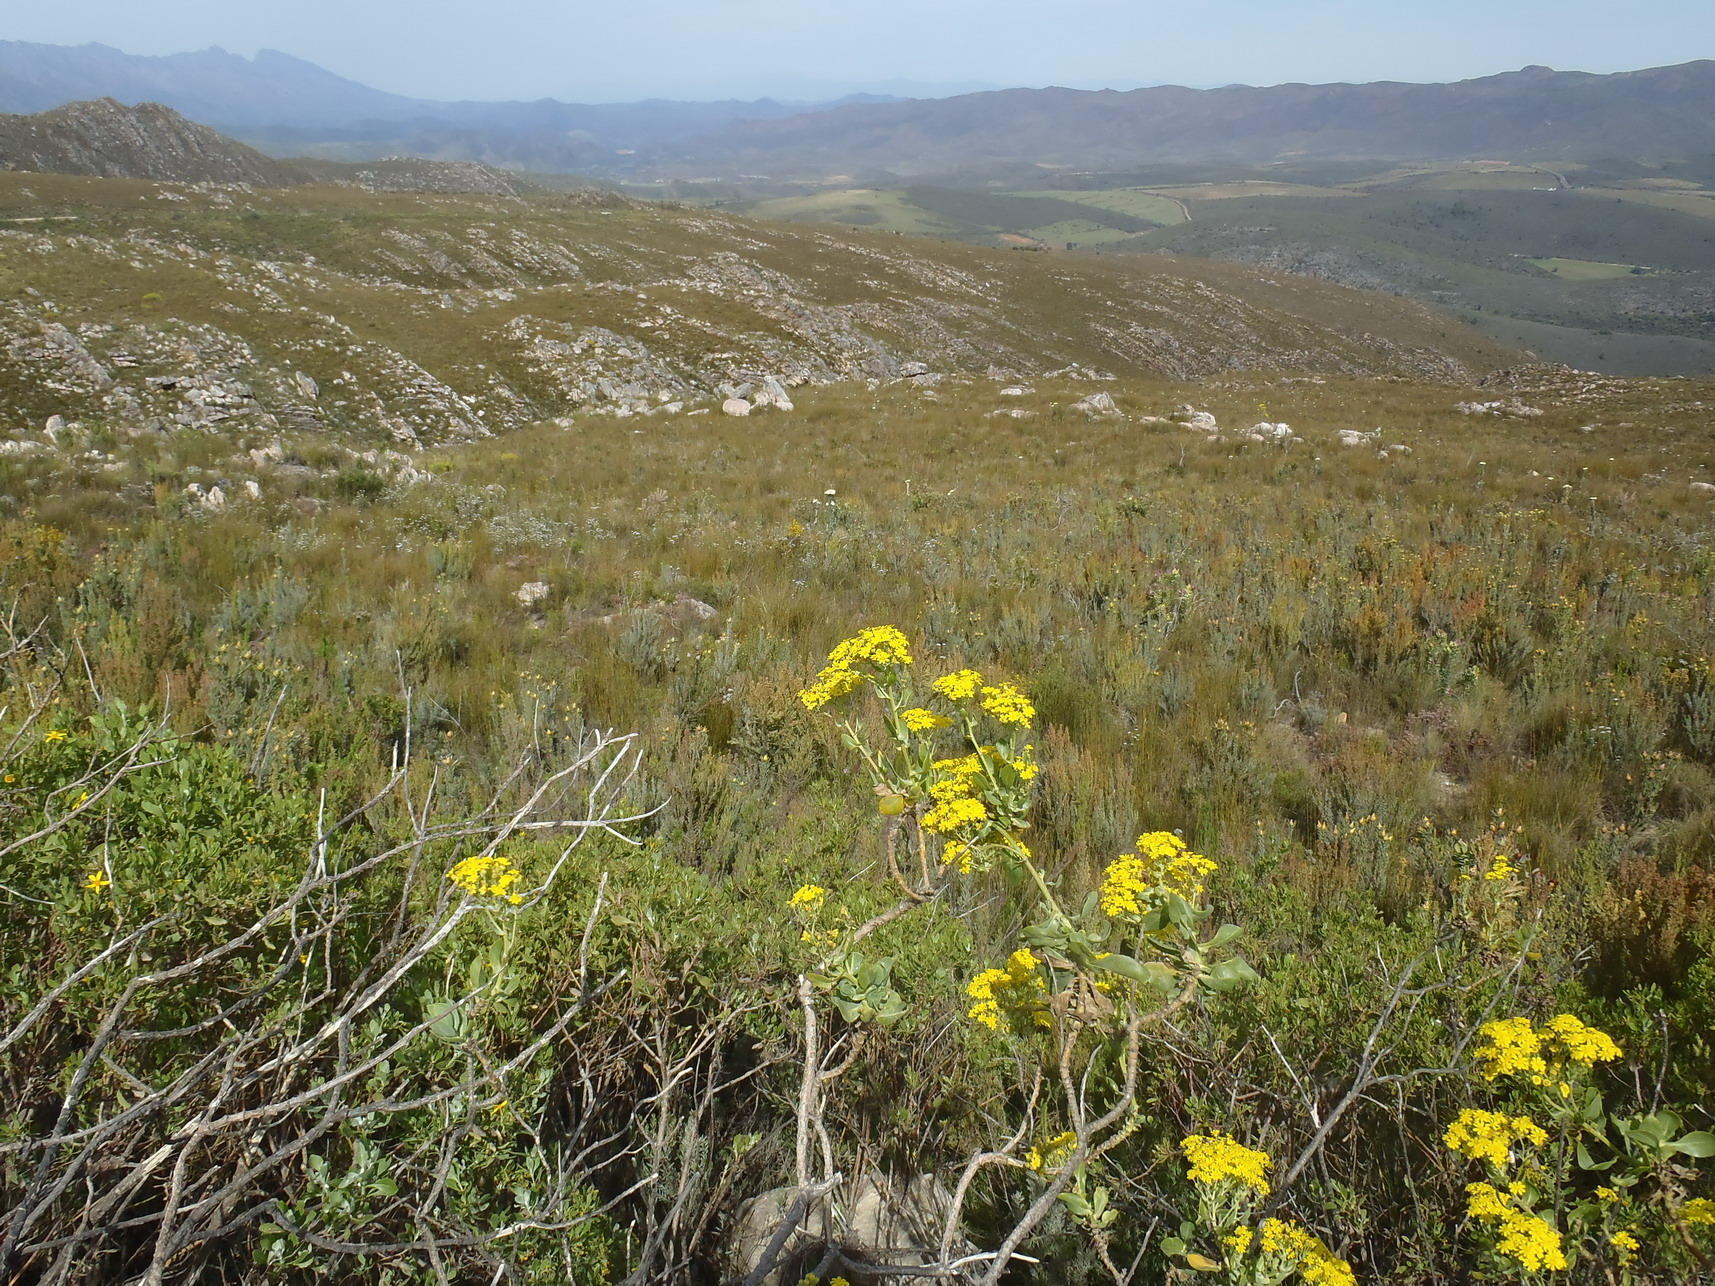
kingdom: Plantae
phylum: Tracheophyta
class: Magnoliopsida
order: Asterales
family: Asteraceae
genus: Othonna
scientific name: Othonna parviflora
